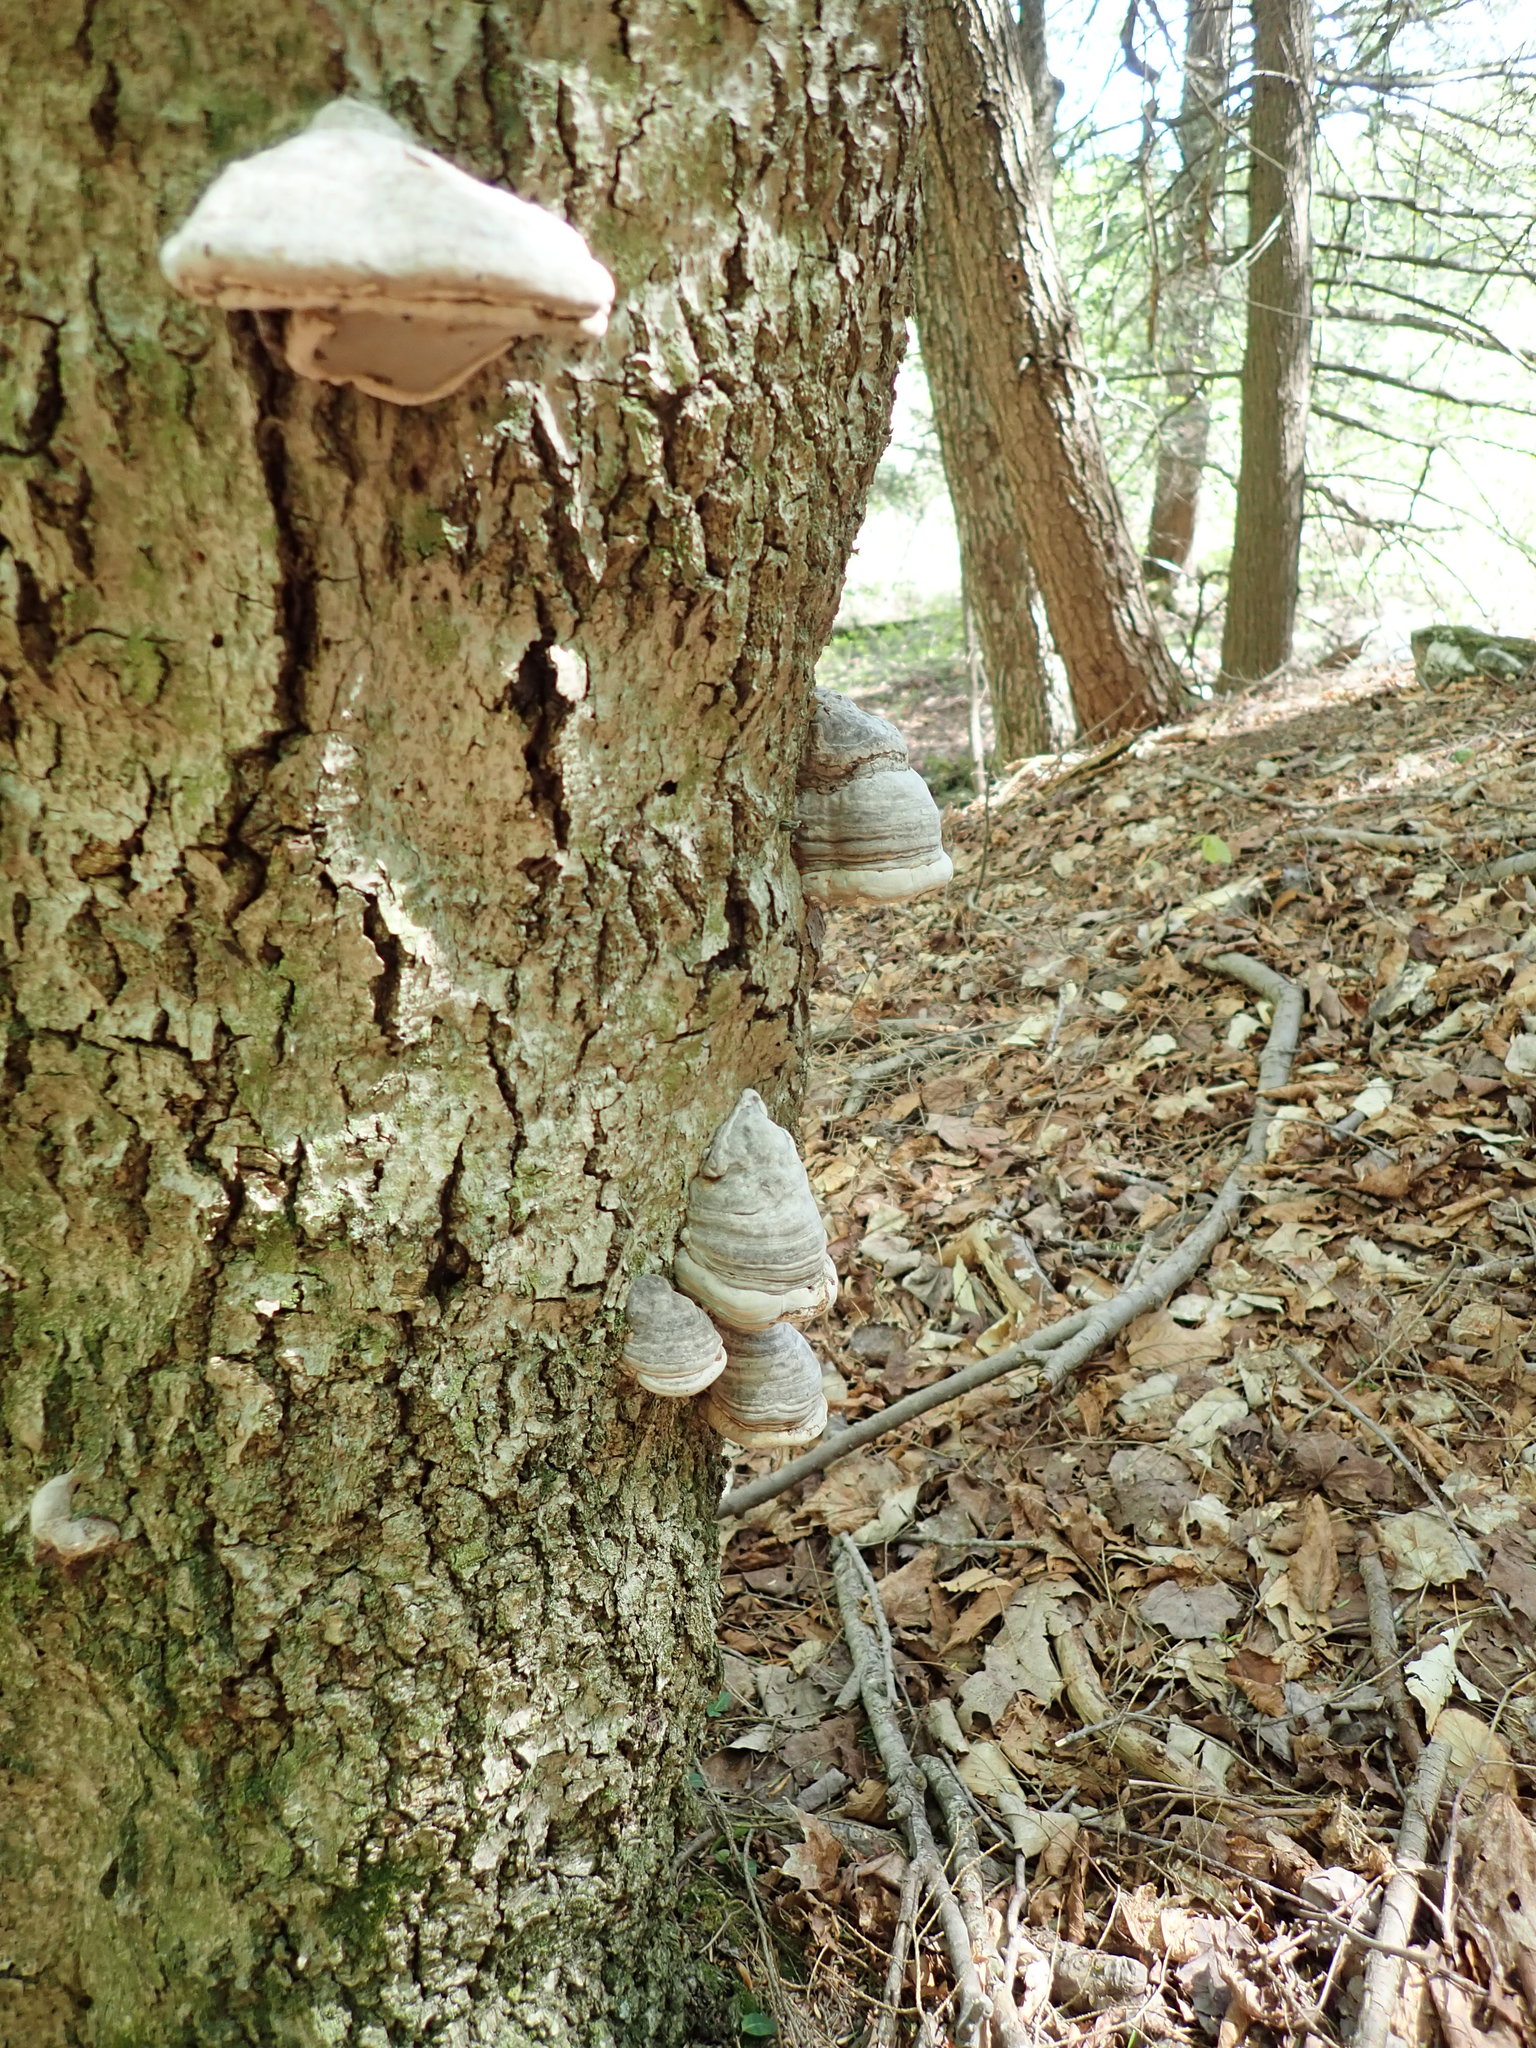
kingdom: Fungi
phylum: Basidiomycota
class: Agaricomycetes
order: Polyporales
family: Polyporaceae
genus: Fomes
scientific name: Fomes fomentarius
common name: Hoof fungus
